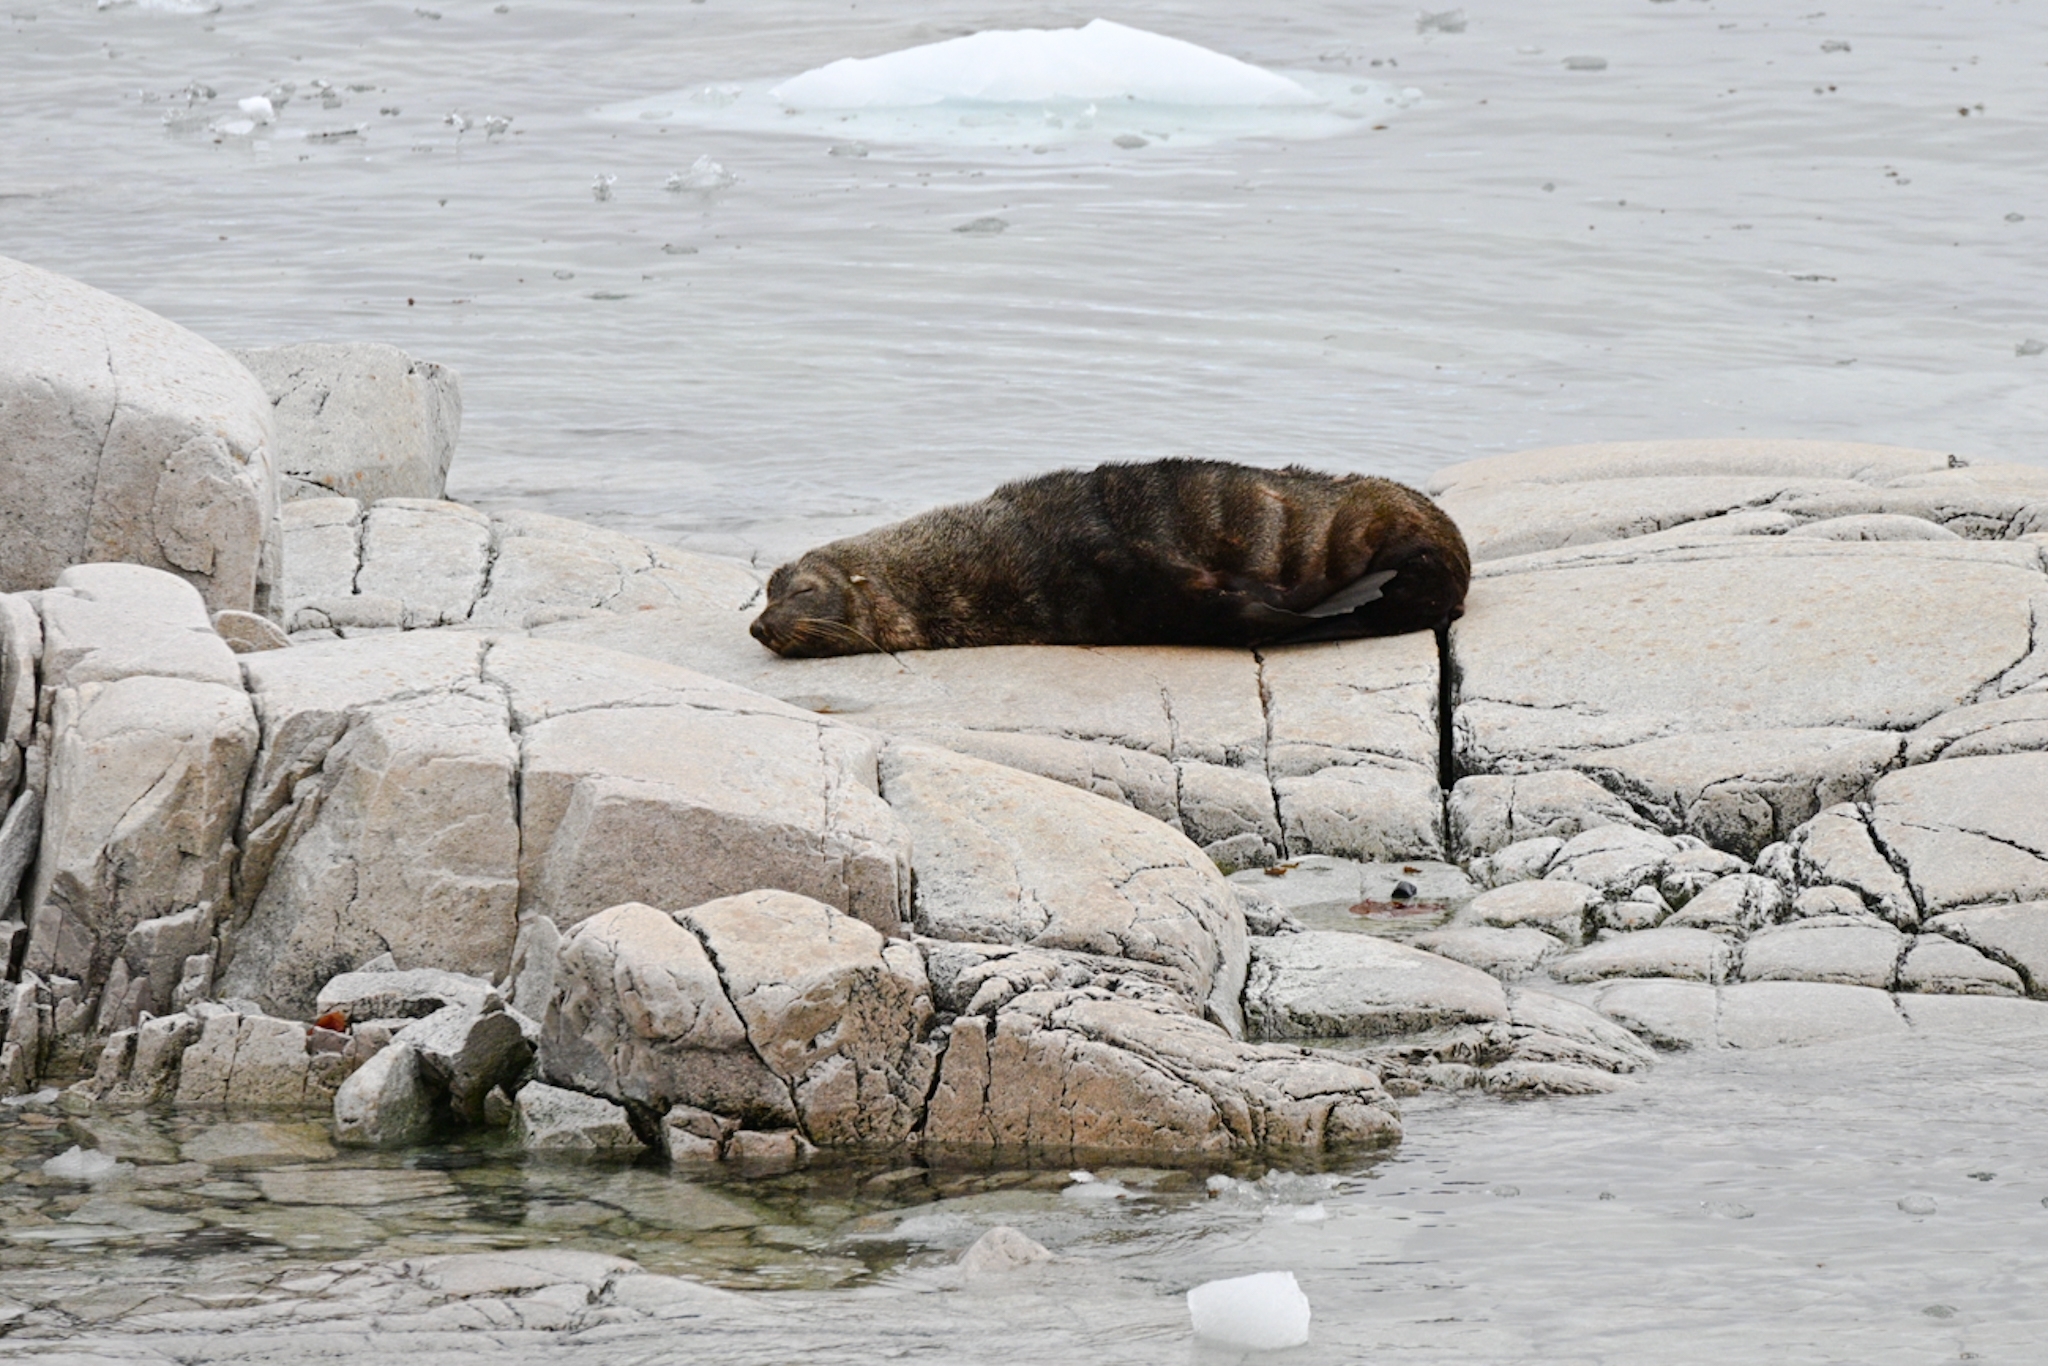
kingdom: Animalia
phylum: Chordata
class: Mammalia
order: Carnivora
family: Otariidae
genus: Arctocephalus
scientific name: Arctocephalus gazella
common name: Antarctic fur seal
